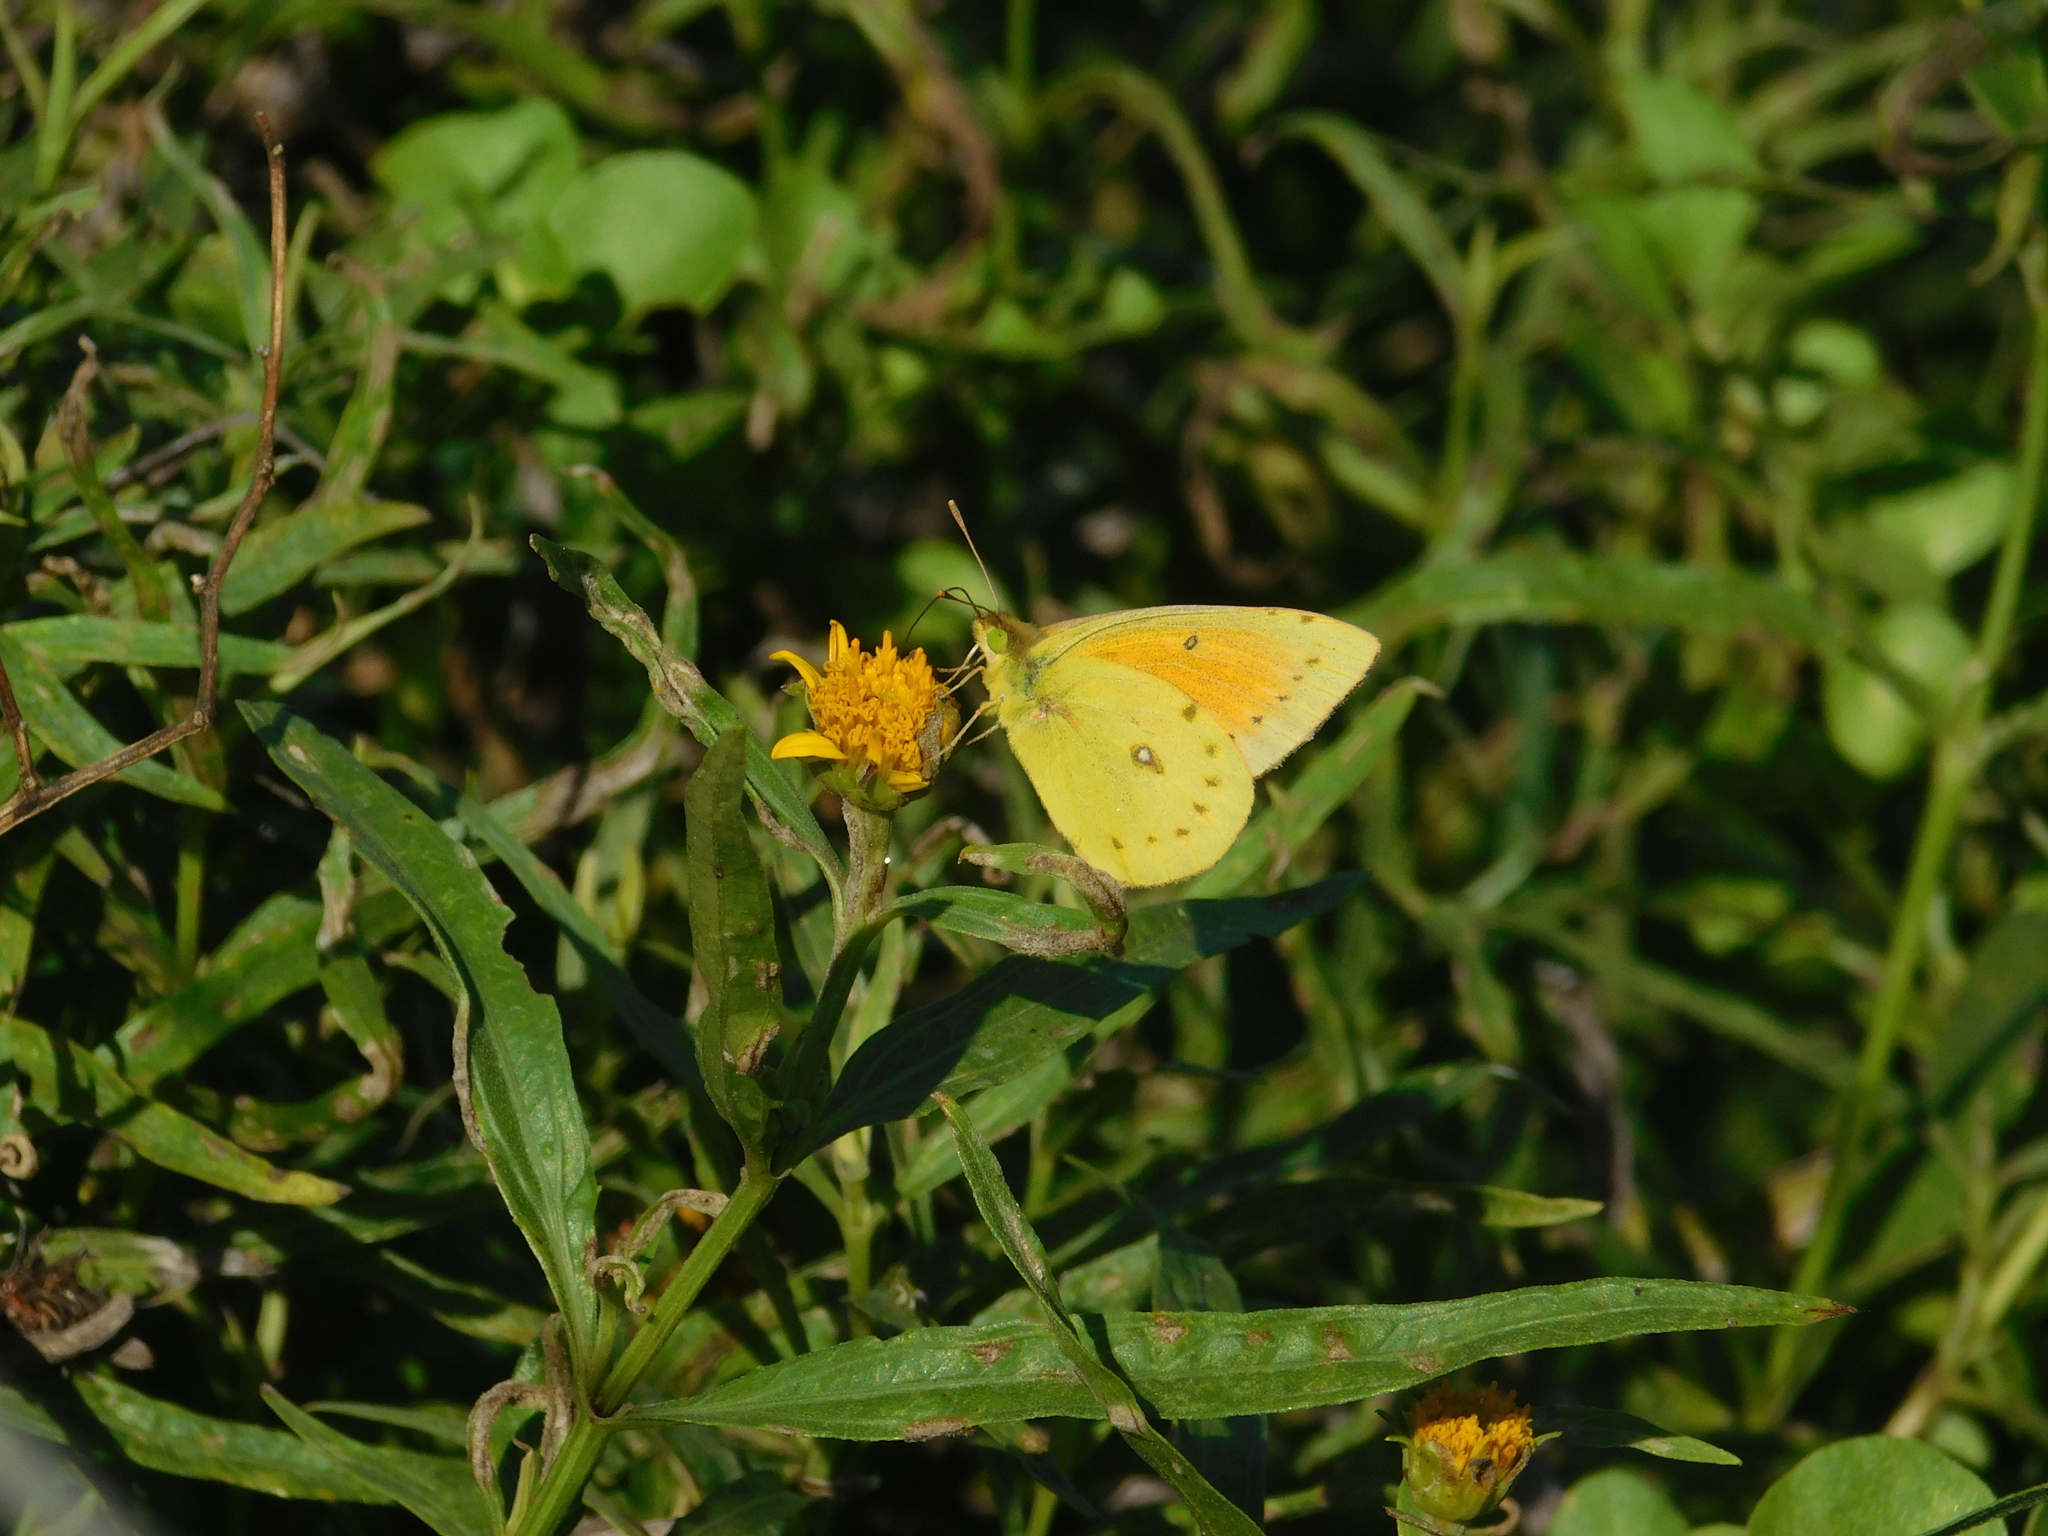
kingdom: Animalia
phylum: Arthropoda
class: Insecta
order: Lepidoptera
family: Pieridae
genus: Colias
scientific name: Colias lesbia
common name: Lesbia clouded yellow
